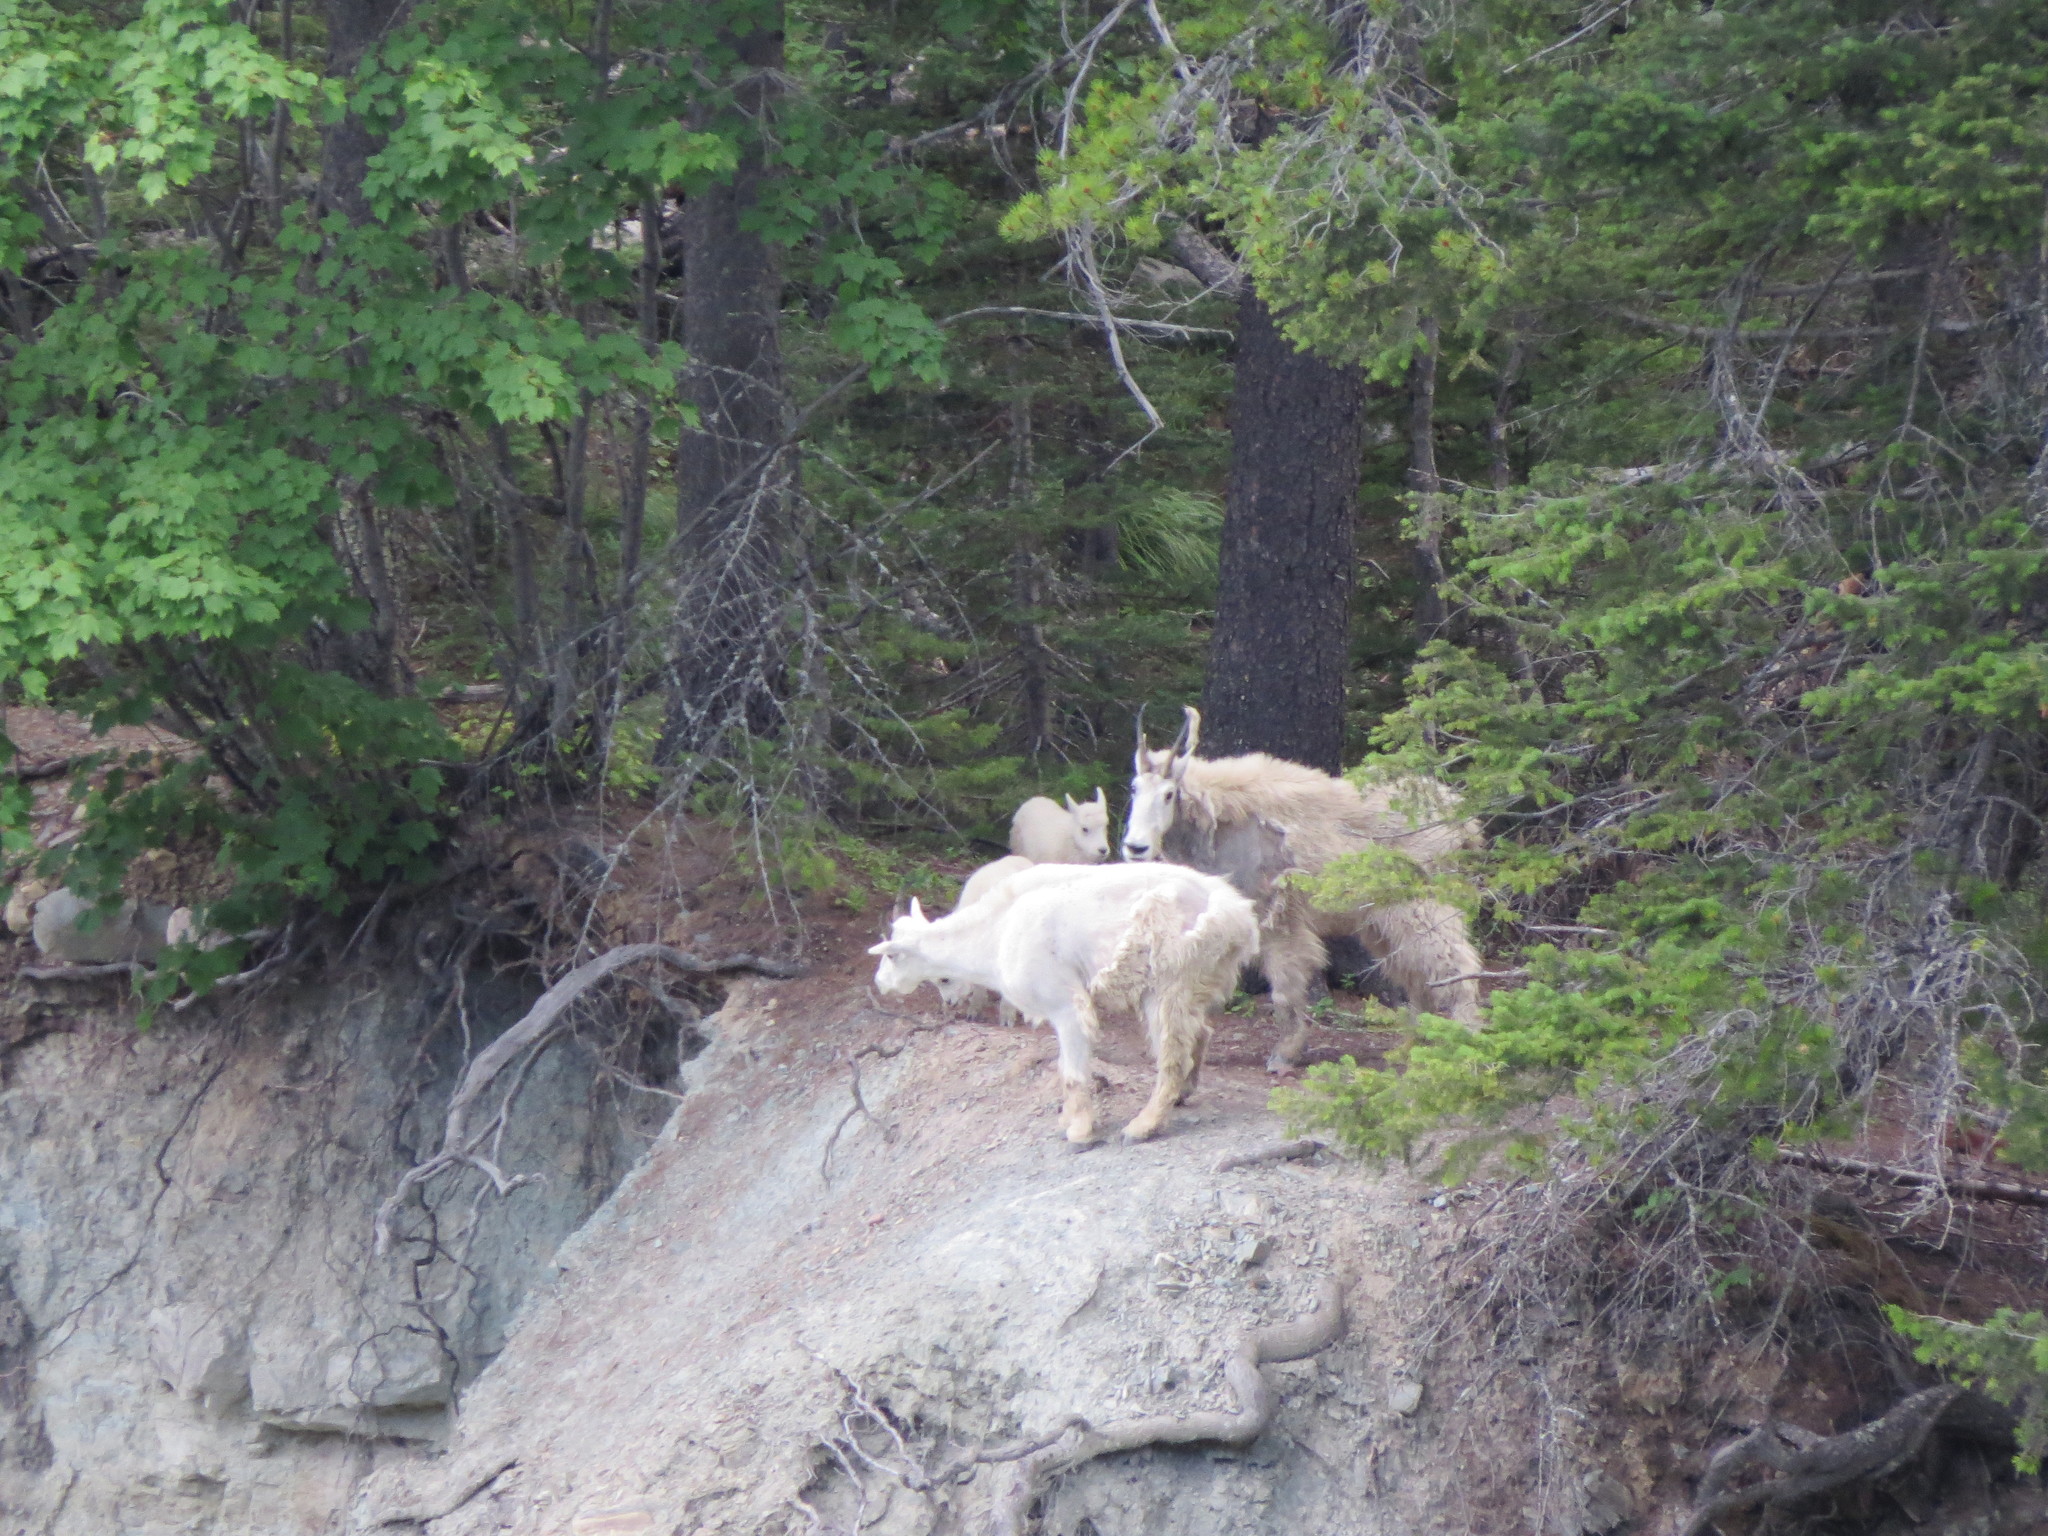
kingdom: Animalia
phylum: Chordata
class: Mammalia
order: Artiodactyla
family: Bovidae
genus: Oreamnos
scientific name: Oreamnos americanus
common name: Mountain goat
